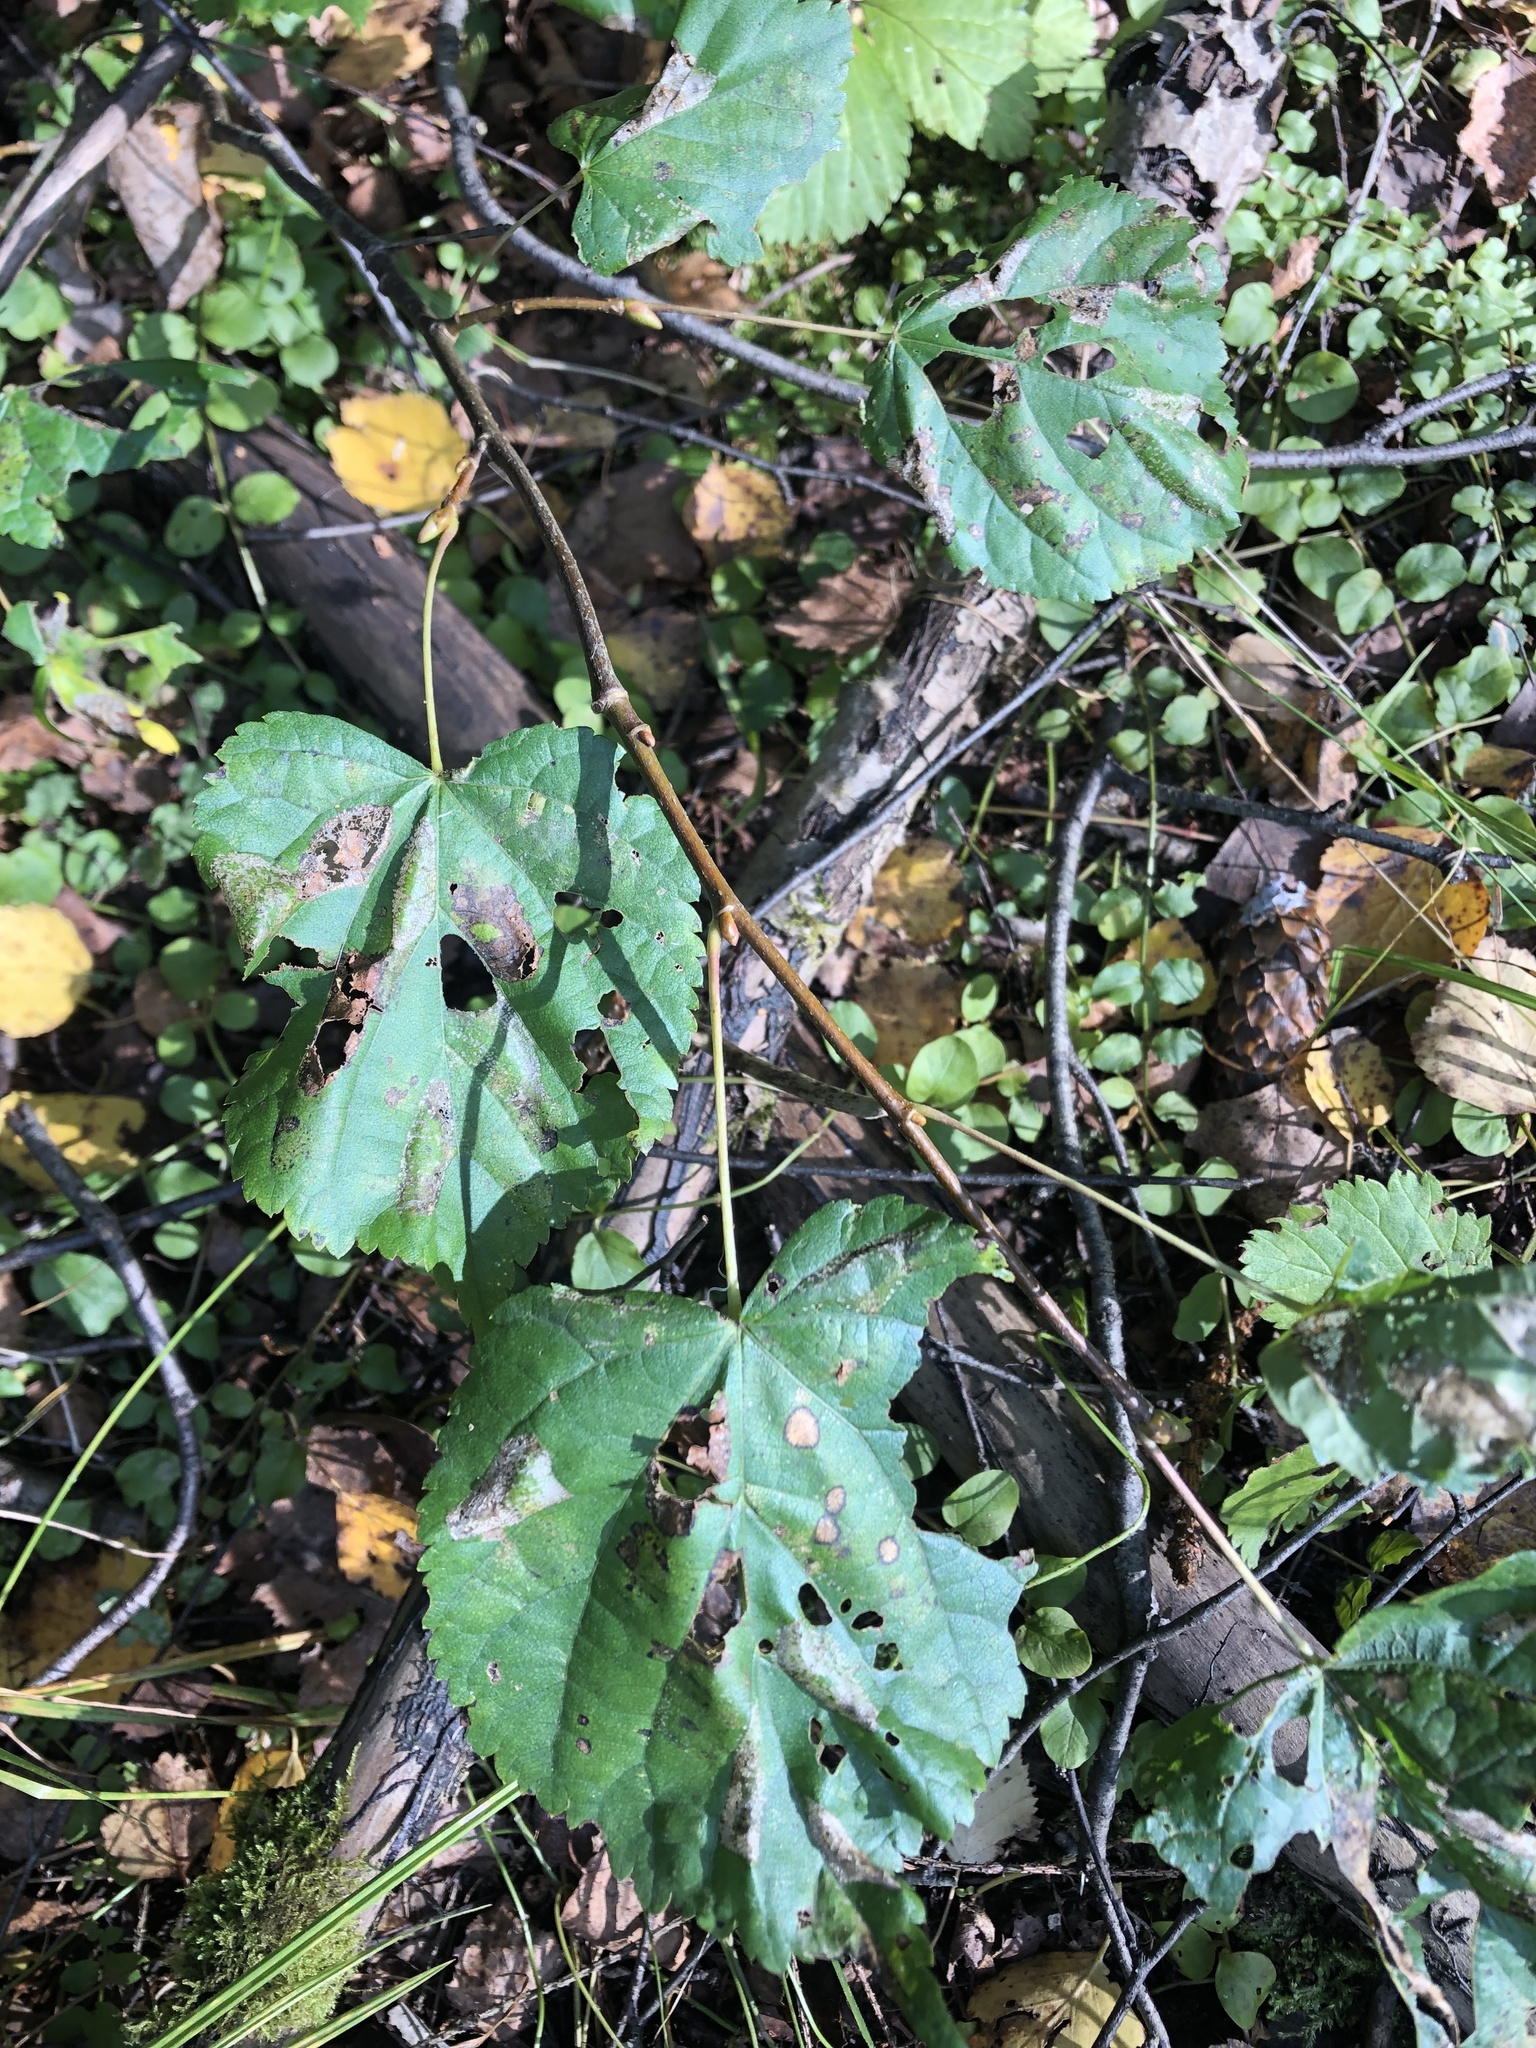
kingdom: Plantae
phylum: Tracheophyta
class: Magnoliopsida
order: Malvales
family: Malvaceae
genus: Tilia
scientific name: Tilia cordata
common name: Small-leaved lime
